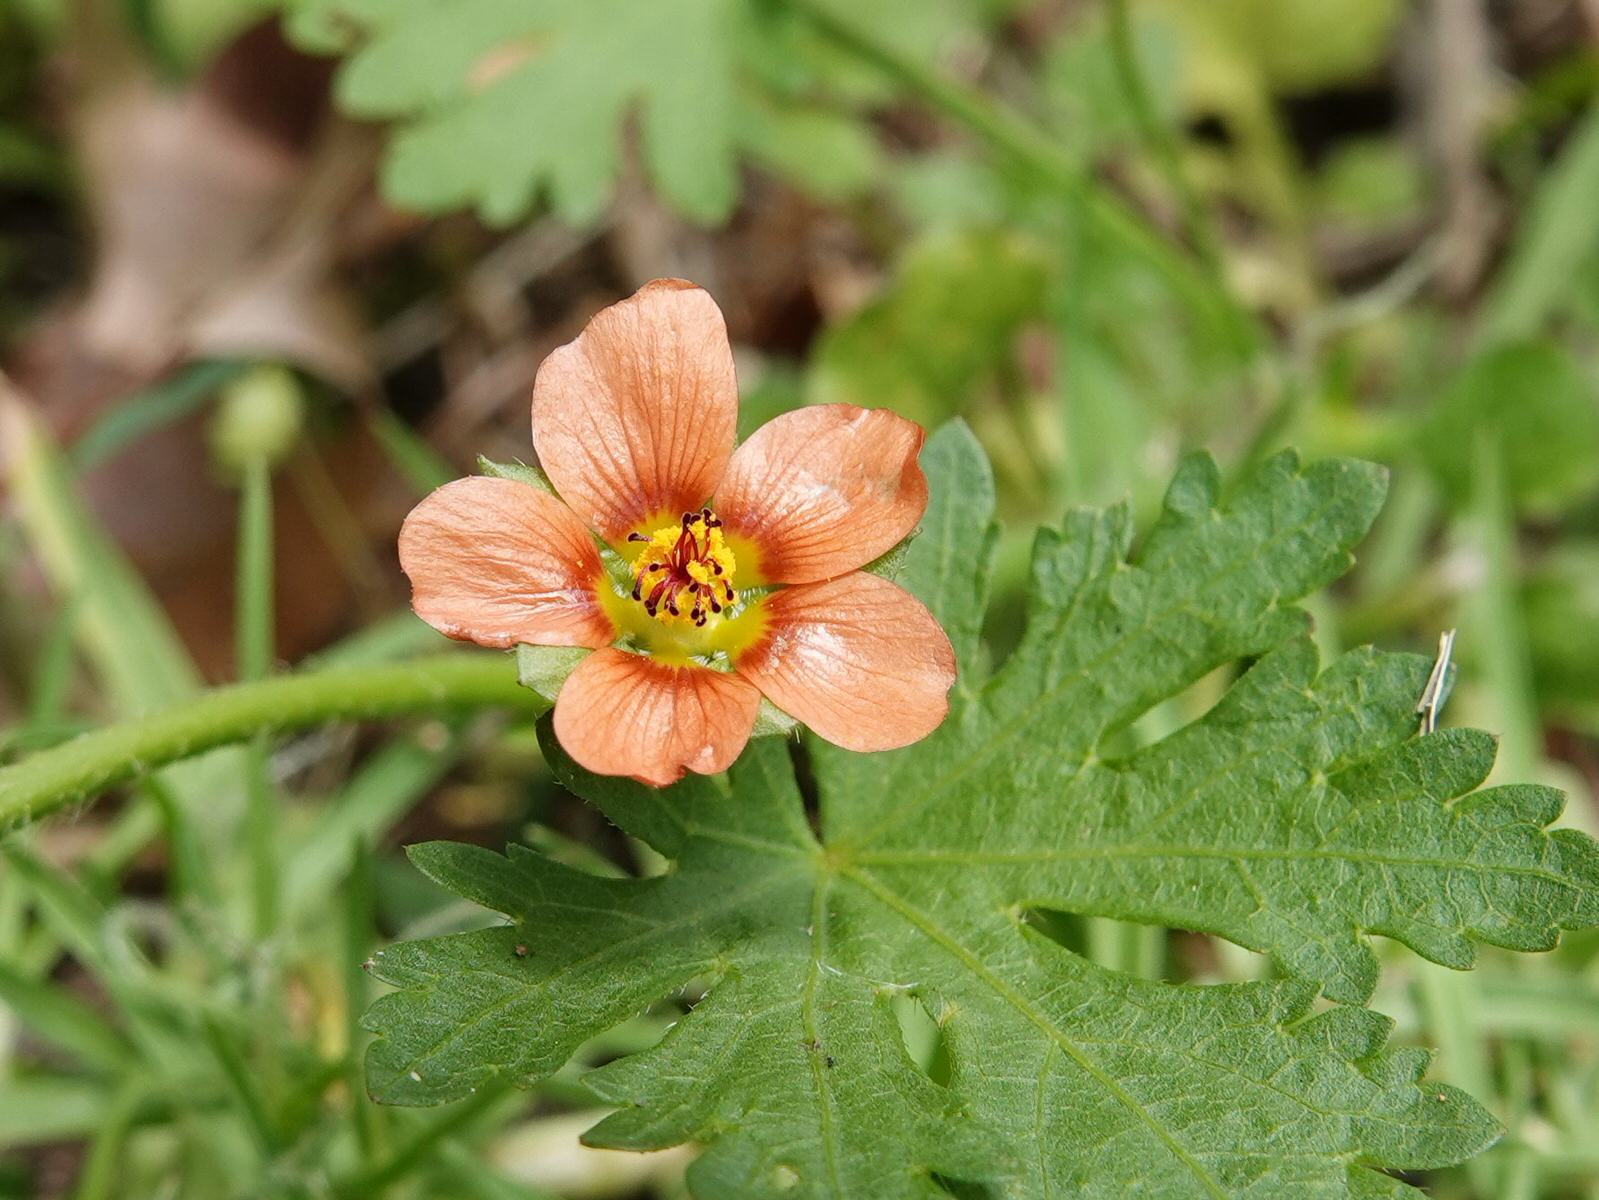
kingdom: Plantae
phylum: Tracheophyta
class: Magnoliopsida
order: Malvales
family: Malvaceae
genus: Modiola
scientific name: Modiola caroliniana
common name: Carolina bristlemallow
